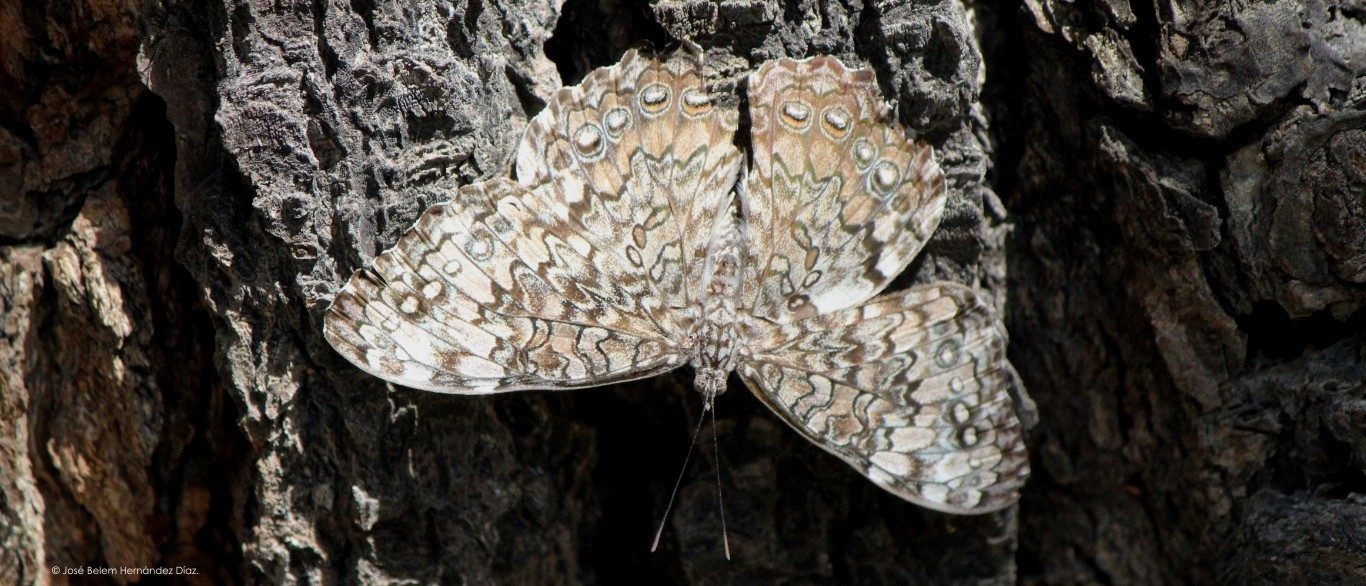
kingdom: Animalia
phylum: Arthropoda
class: Insecta
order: Lepidoptera
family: Nymphalidae
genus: Hamadryas
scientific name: Hamadryas februa
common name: Gray cracker
